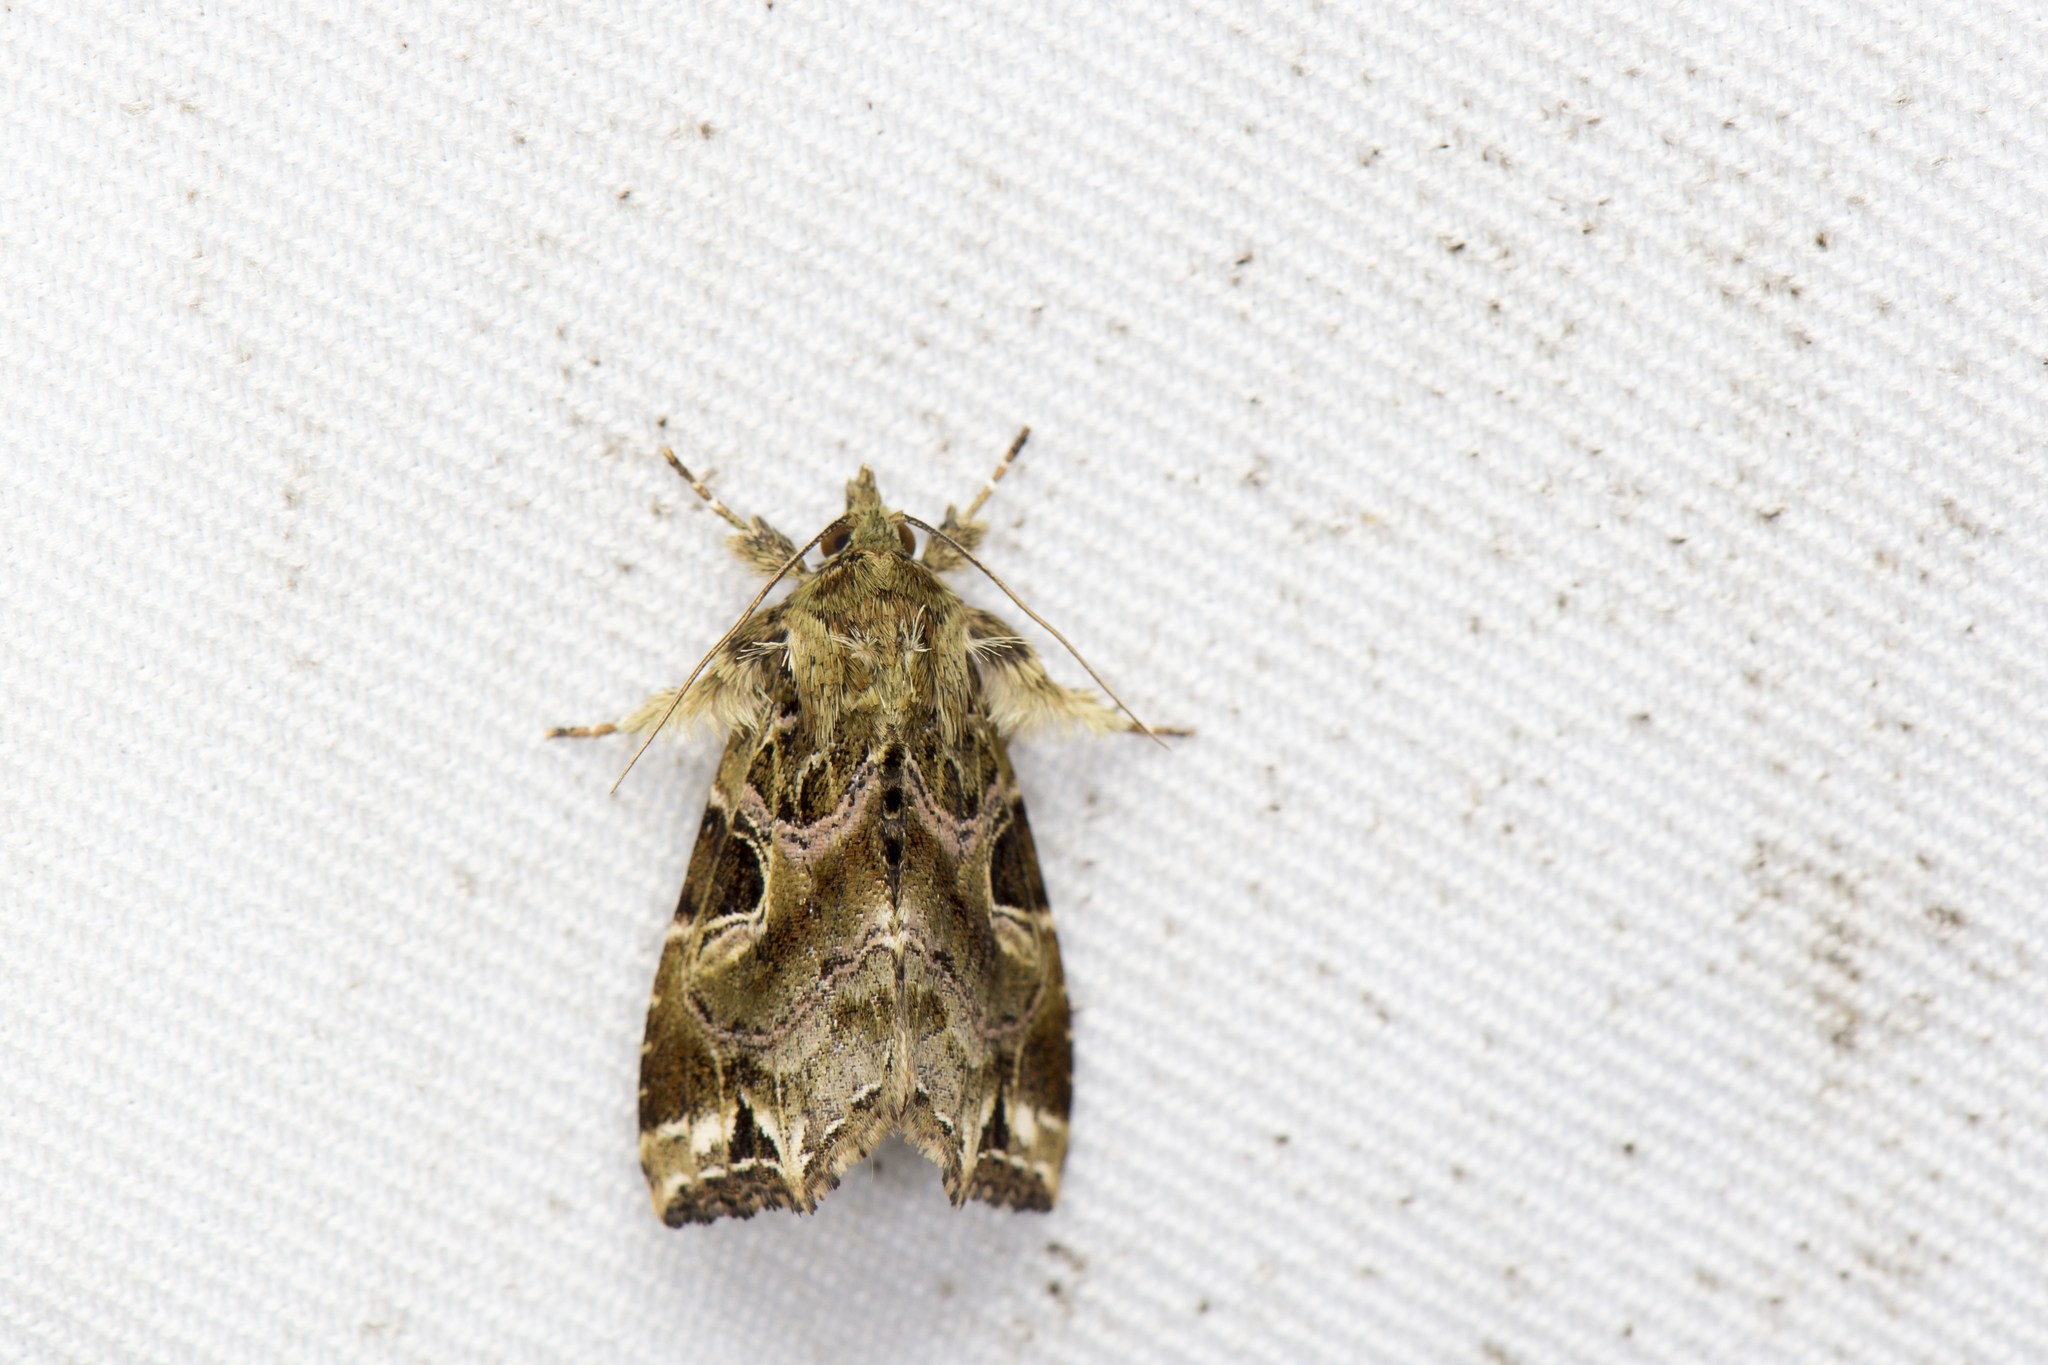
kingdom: Animalia
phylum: Arthropoda
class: Insecta
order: Lepidoptera
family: Noctuidae
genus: Callopistria
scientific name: Callopistria phaeogona
